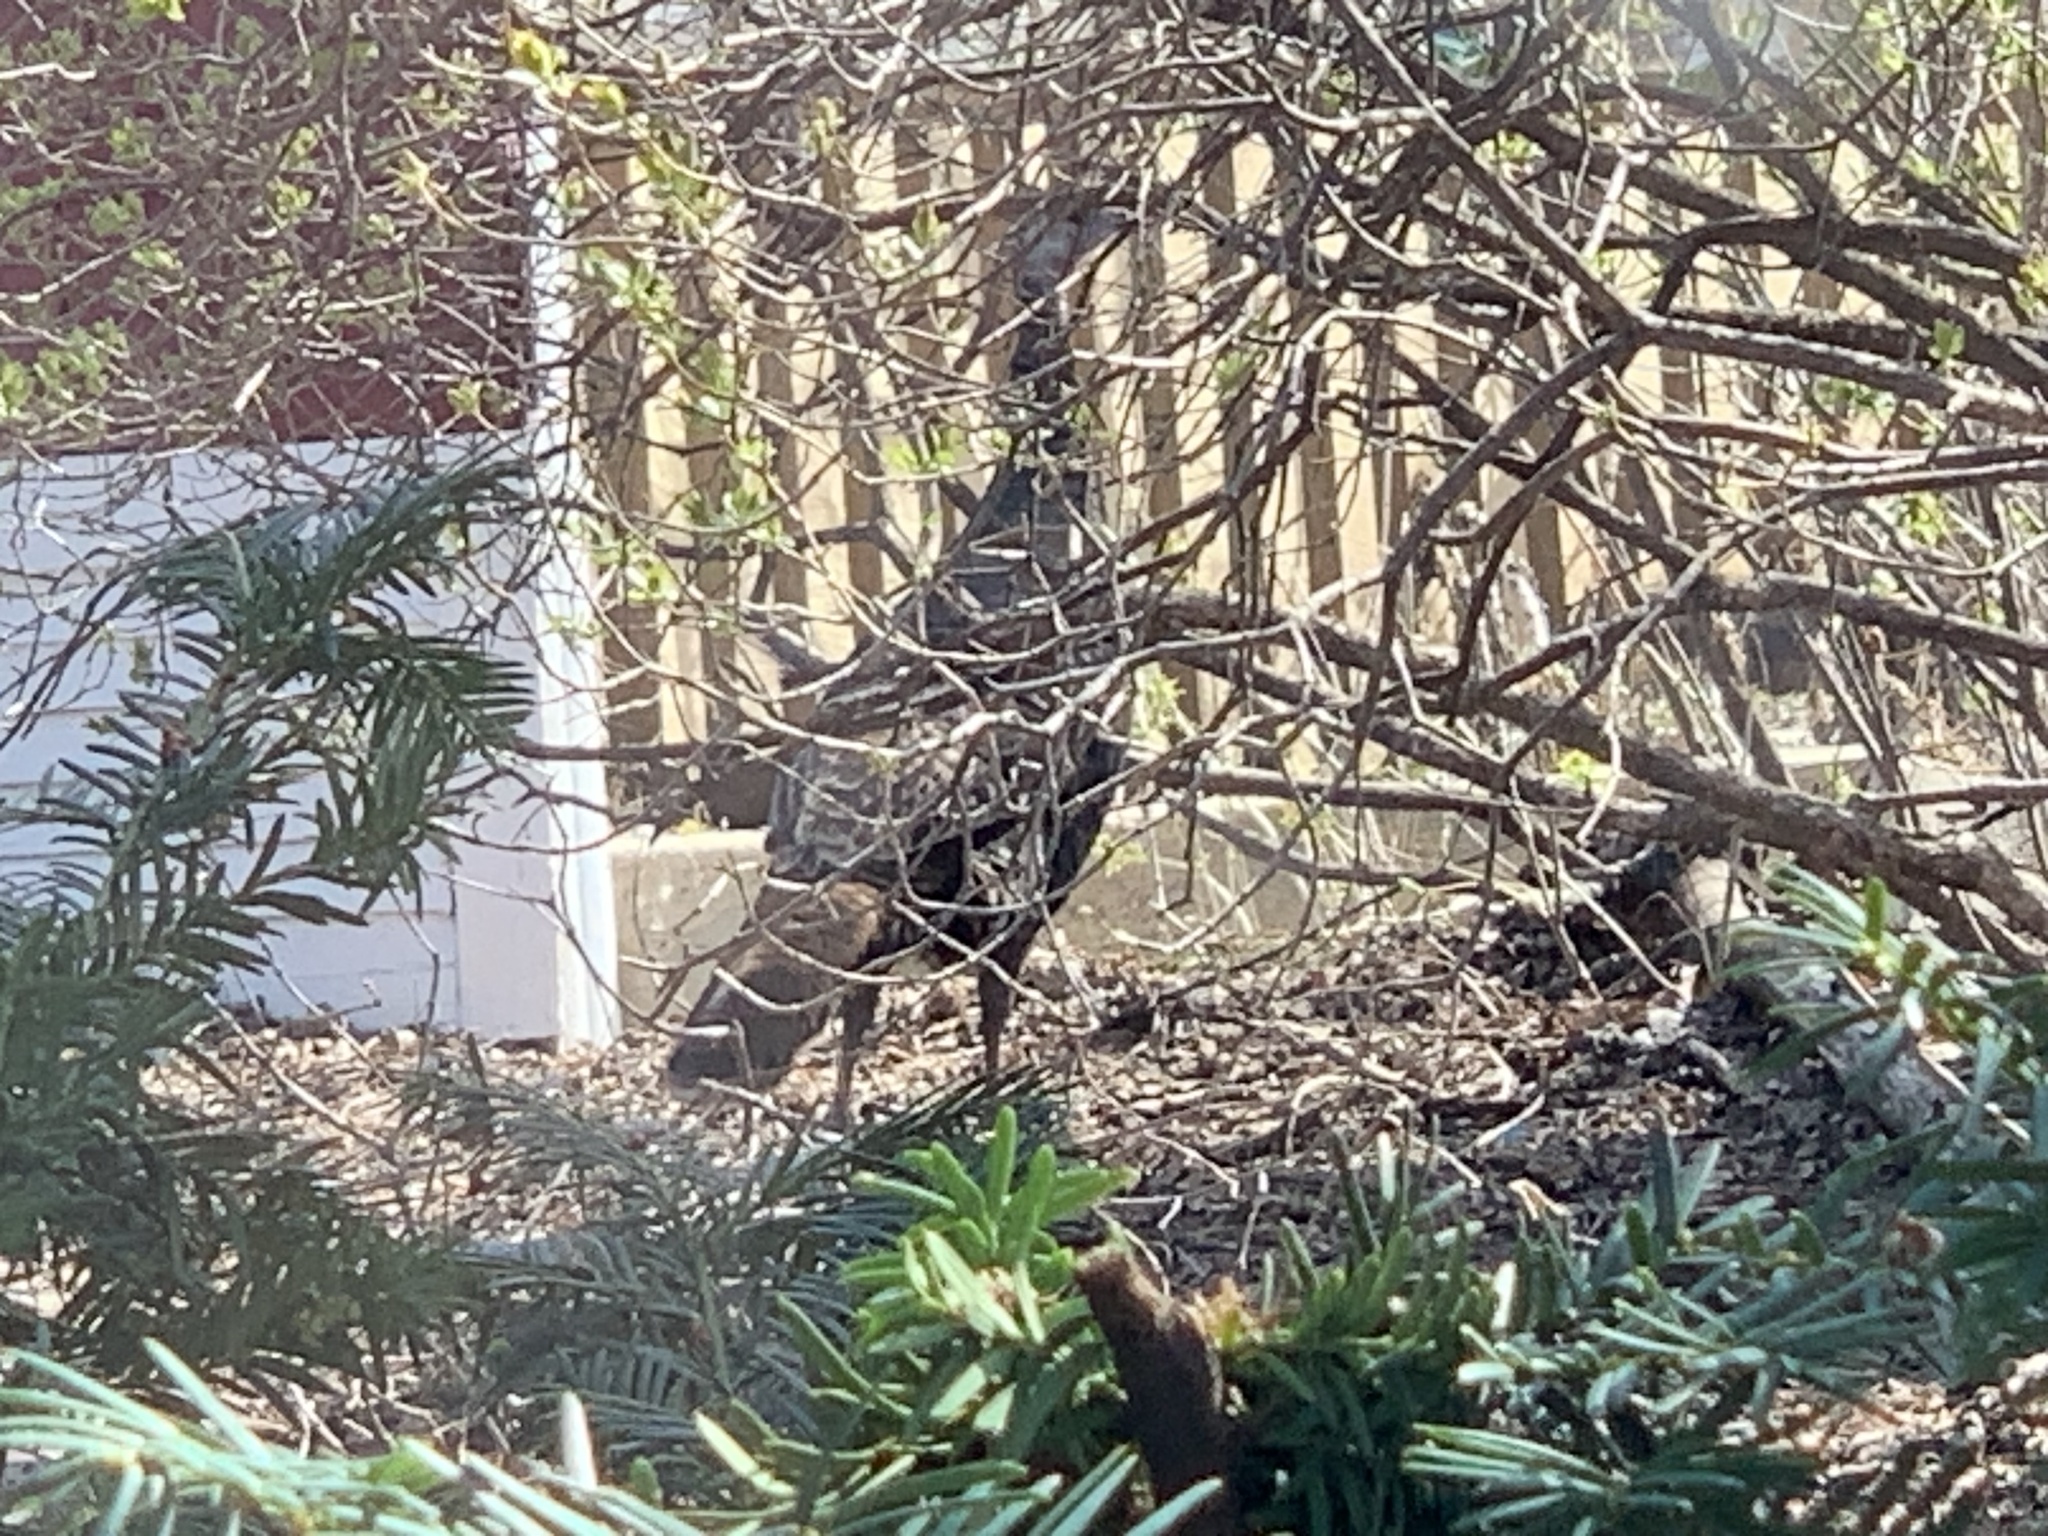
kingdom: Animalia
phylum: Chordata
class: Aves
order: Galliformes
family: Phasianidae
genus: Meleagris
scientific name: Meleagris gallopavo
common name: Wild turkey
